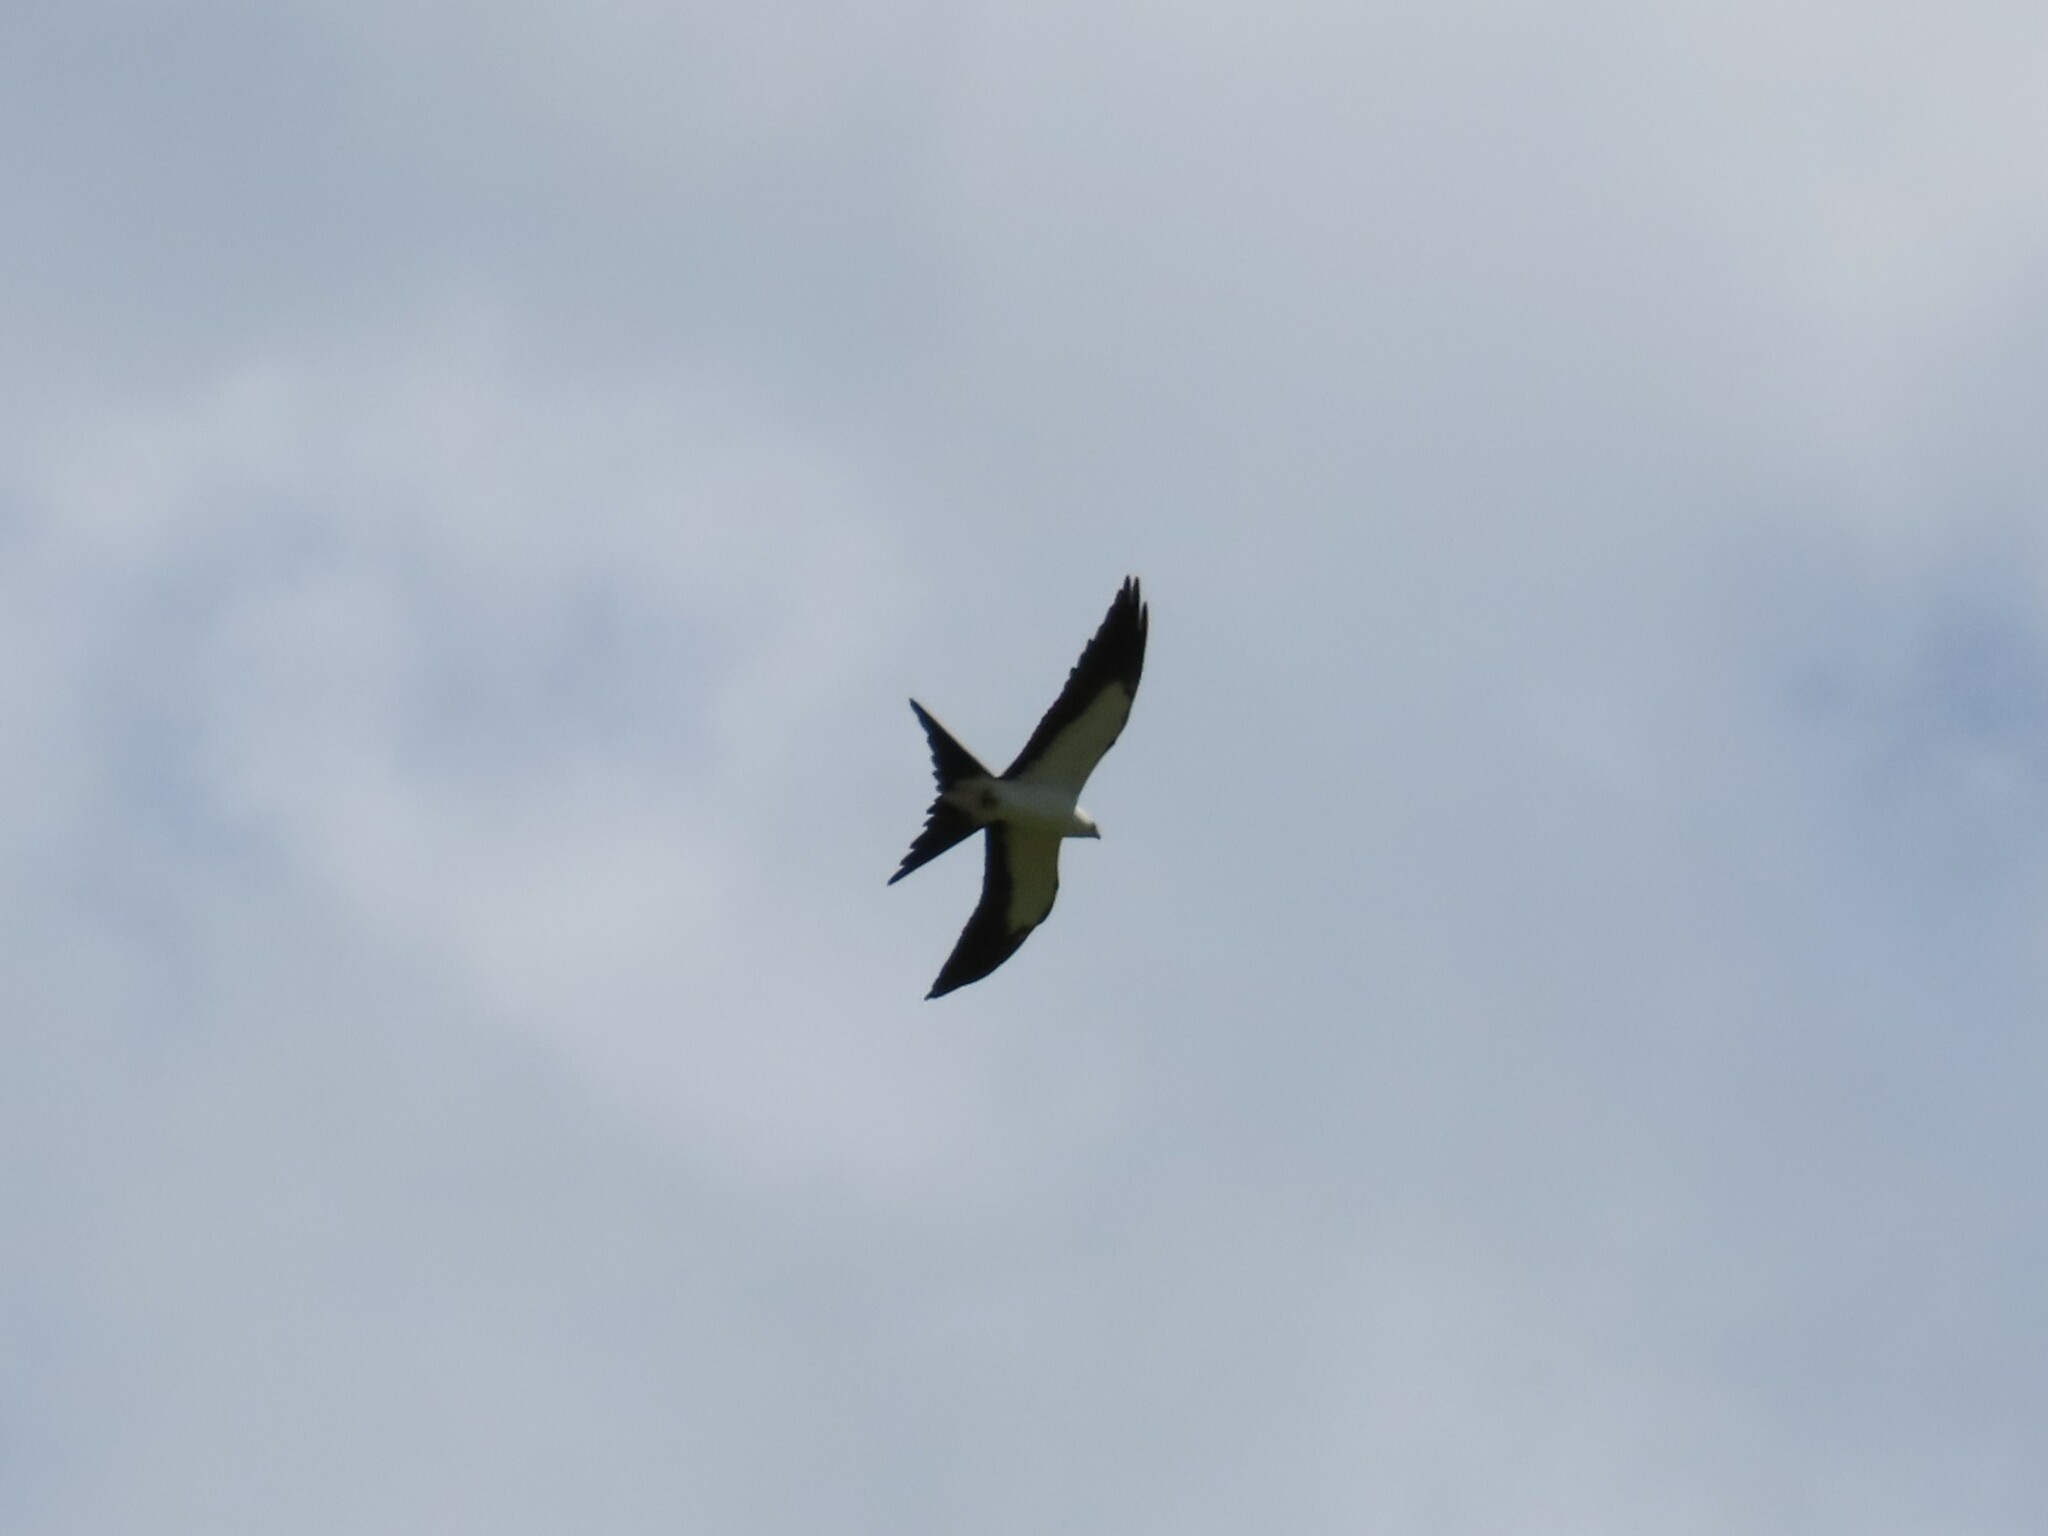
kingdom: Animalia
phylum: Chordata
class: Aves
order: Accipitriformes
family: Accipitridae
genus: Elanoides
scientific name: Elanoides forficatus
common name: Swallow-tailed kite
